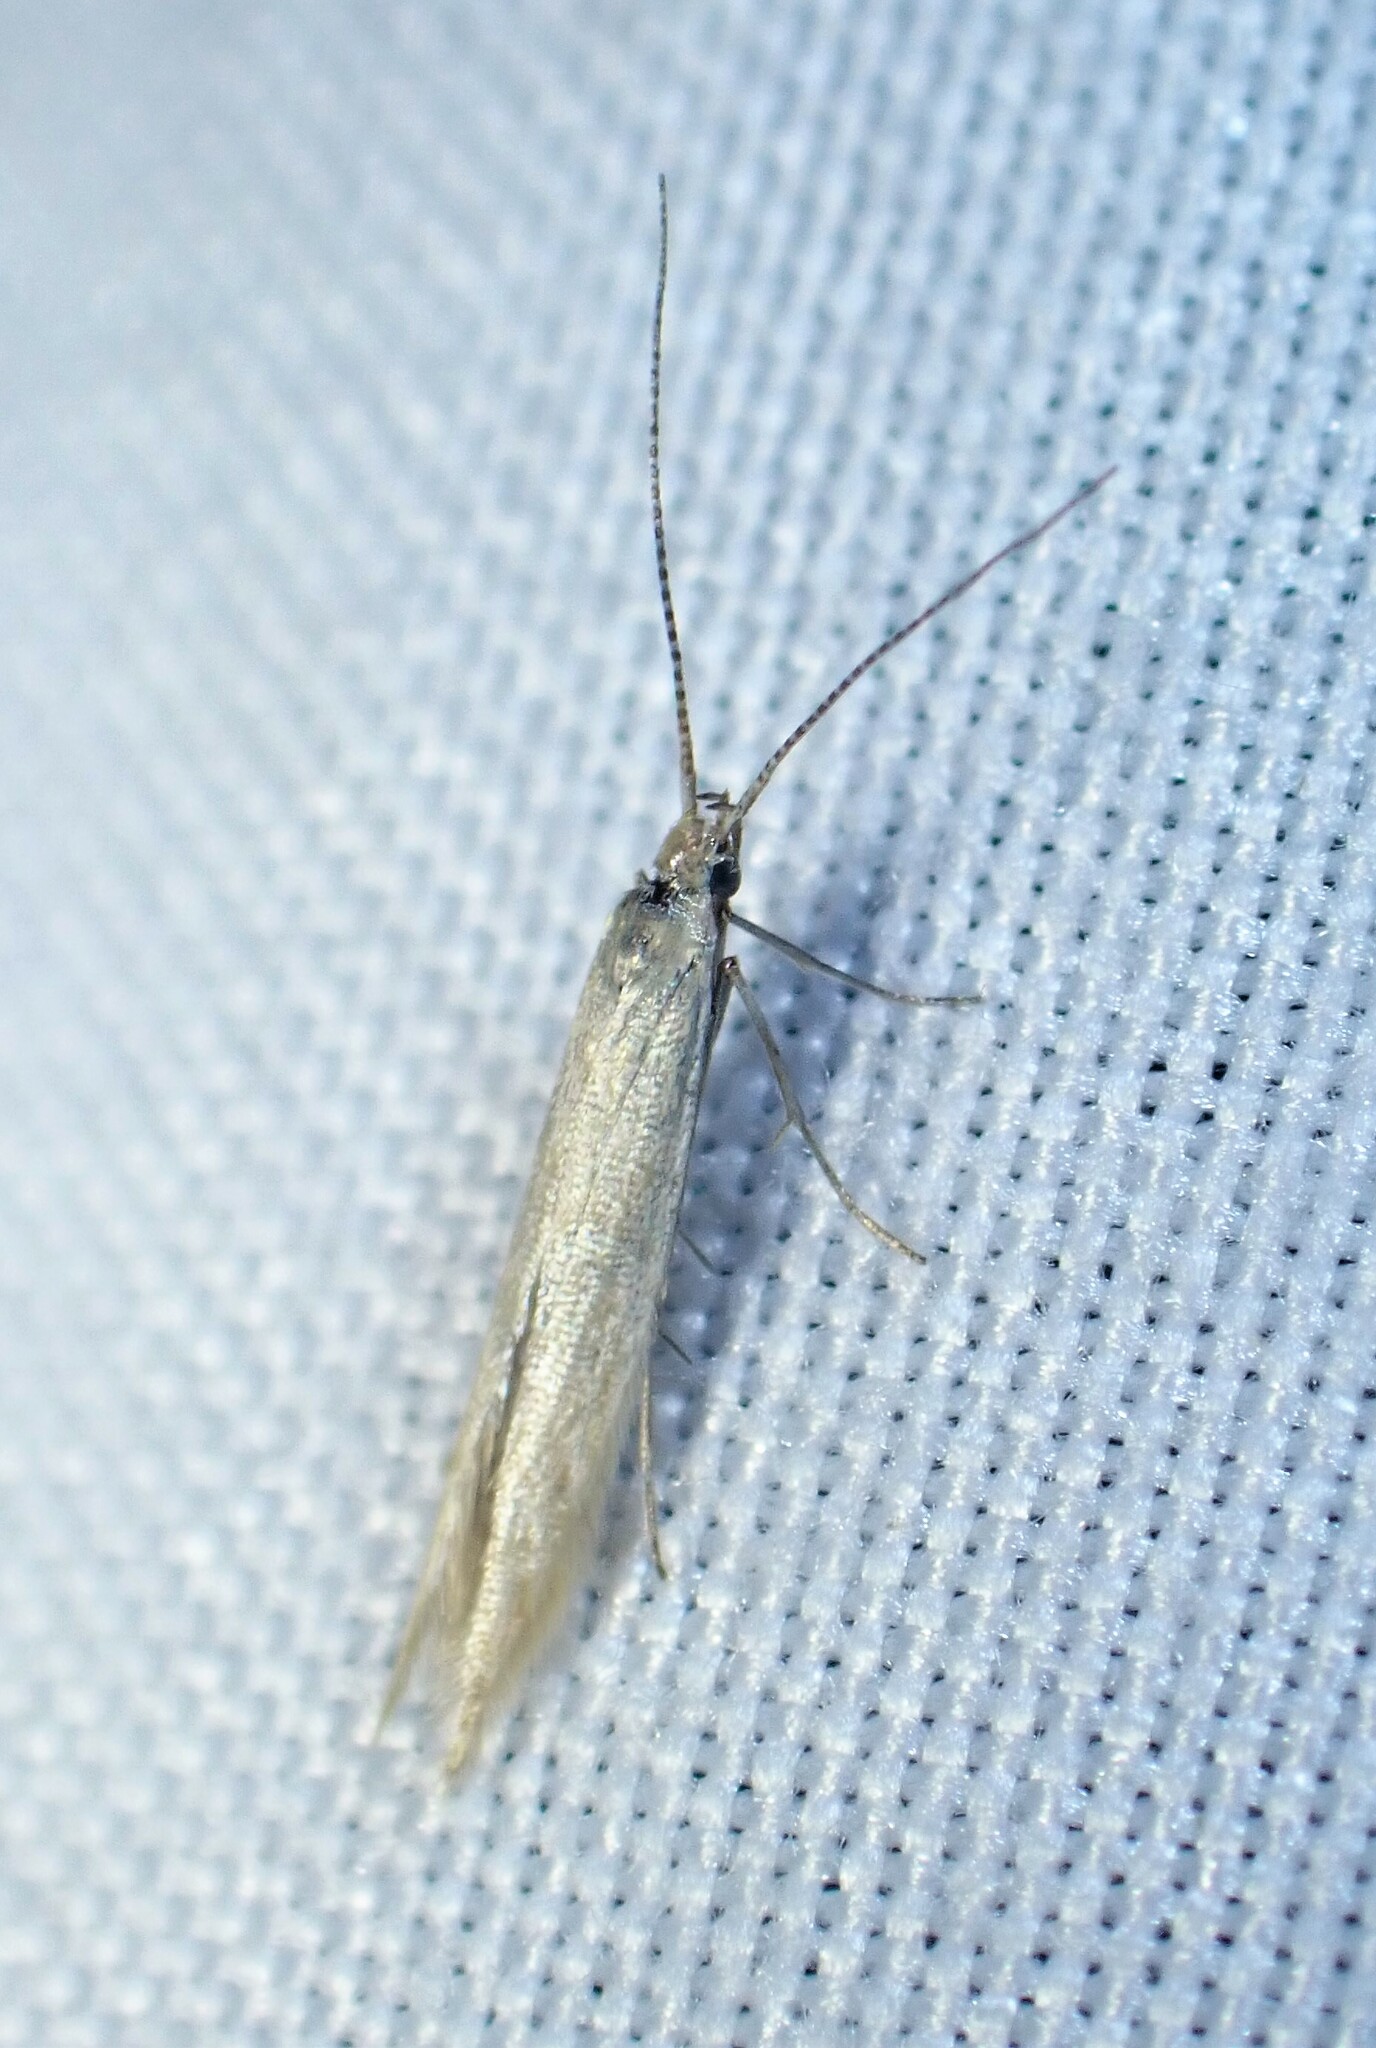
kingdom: Animalia
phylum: Arthropoda
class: Insecta
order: Lepidoptera
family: Coleophoridae
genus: Coleophora
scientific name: Coleophora versurella
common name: Pale orache case-bearer
